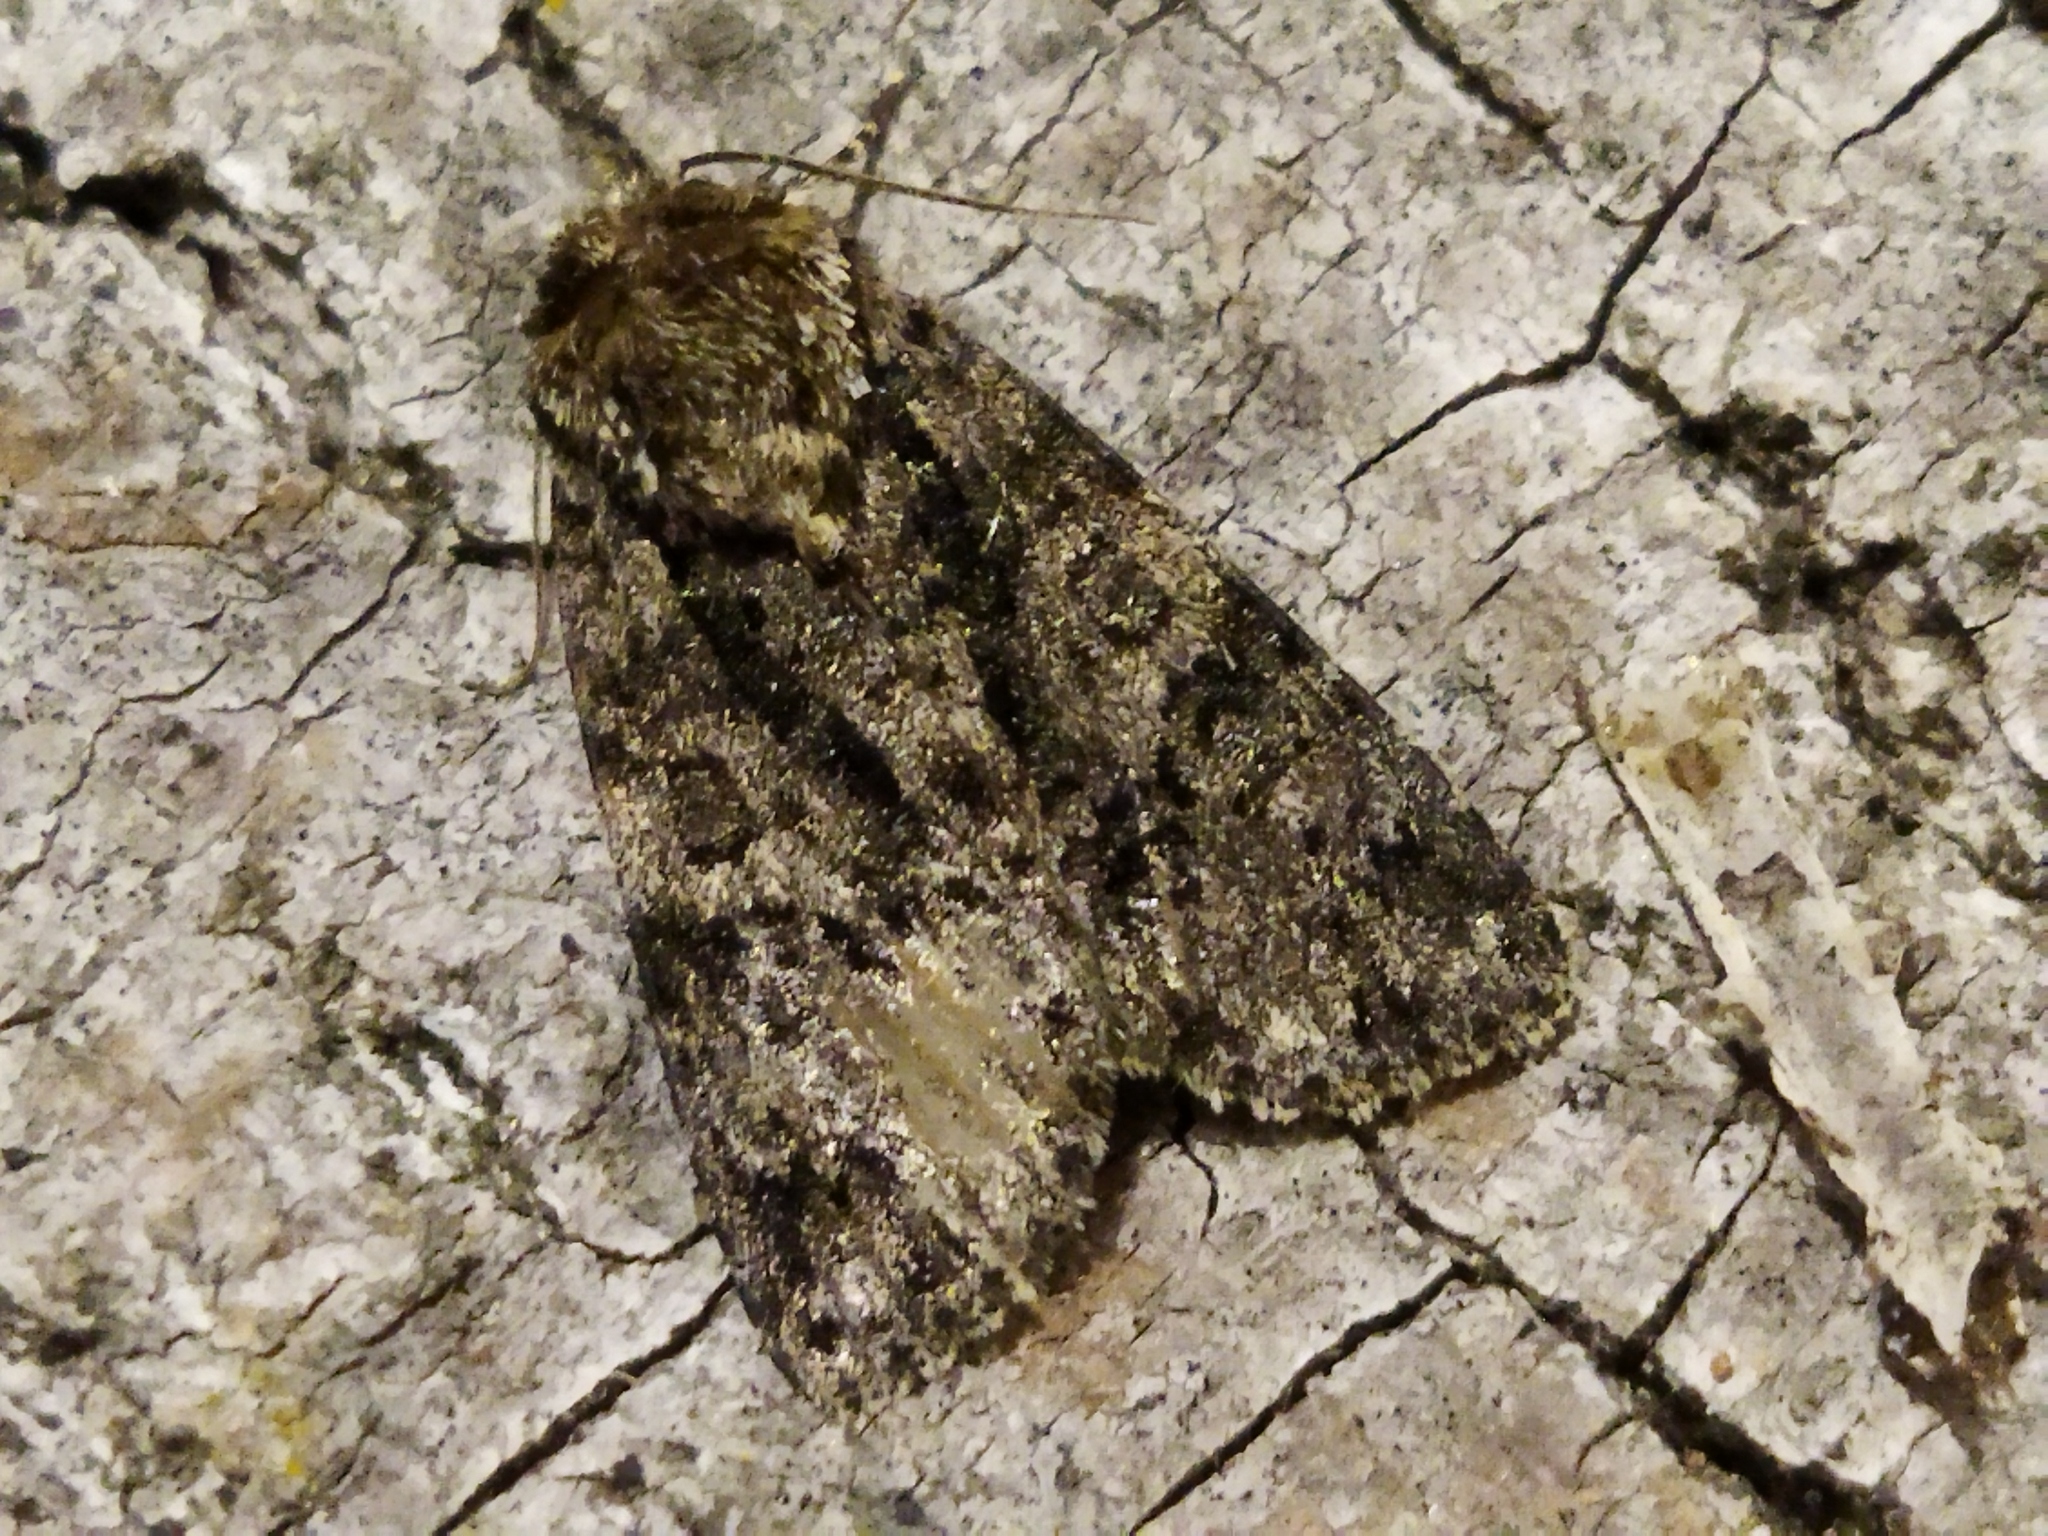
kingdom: Animalia
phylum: Arthropoda
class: Insecta
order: Lepidoptera
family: Noctuidae
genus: Acronicta
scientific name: Acronicta rumicis
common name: Knot grass
